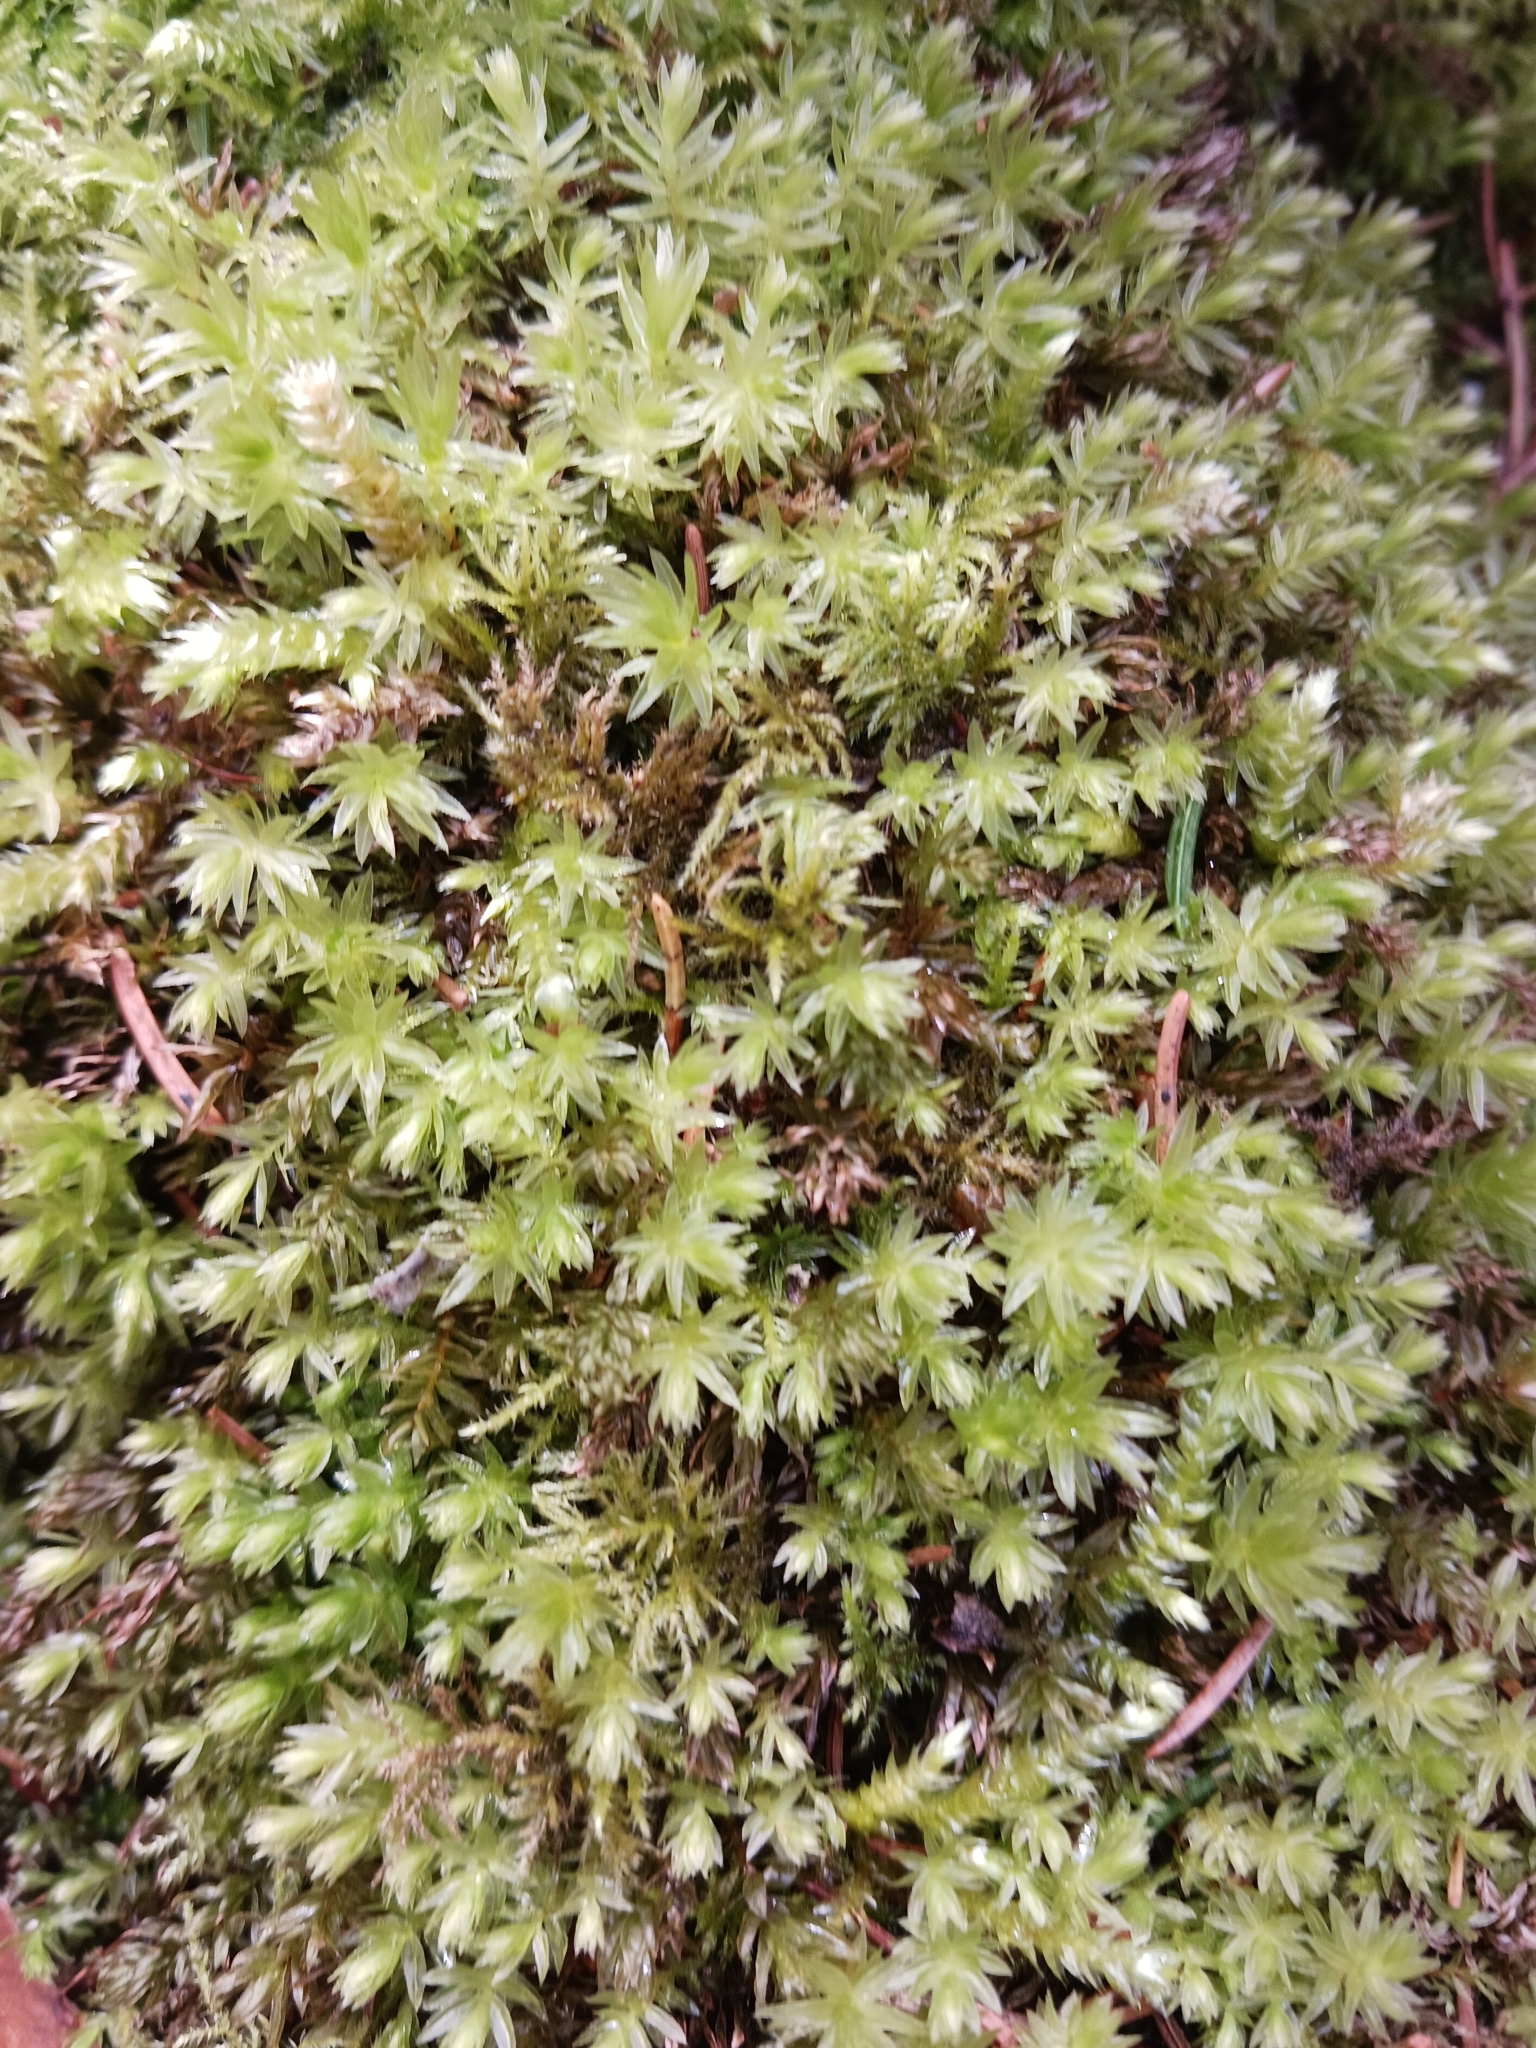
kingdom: Plantae
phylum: Bryophyta
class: Bryopsida
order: Bryales
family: Mniaceae
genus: Mnium
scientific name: Mnium hornum
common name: Swan's-neck leafy moss
